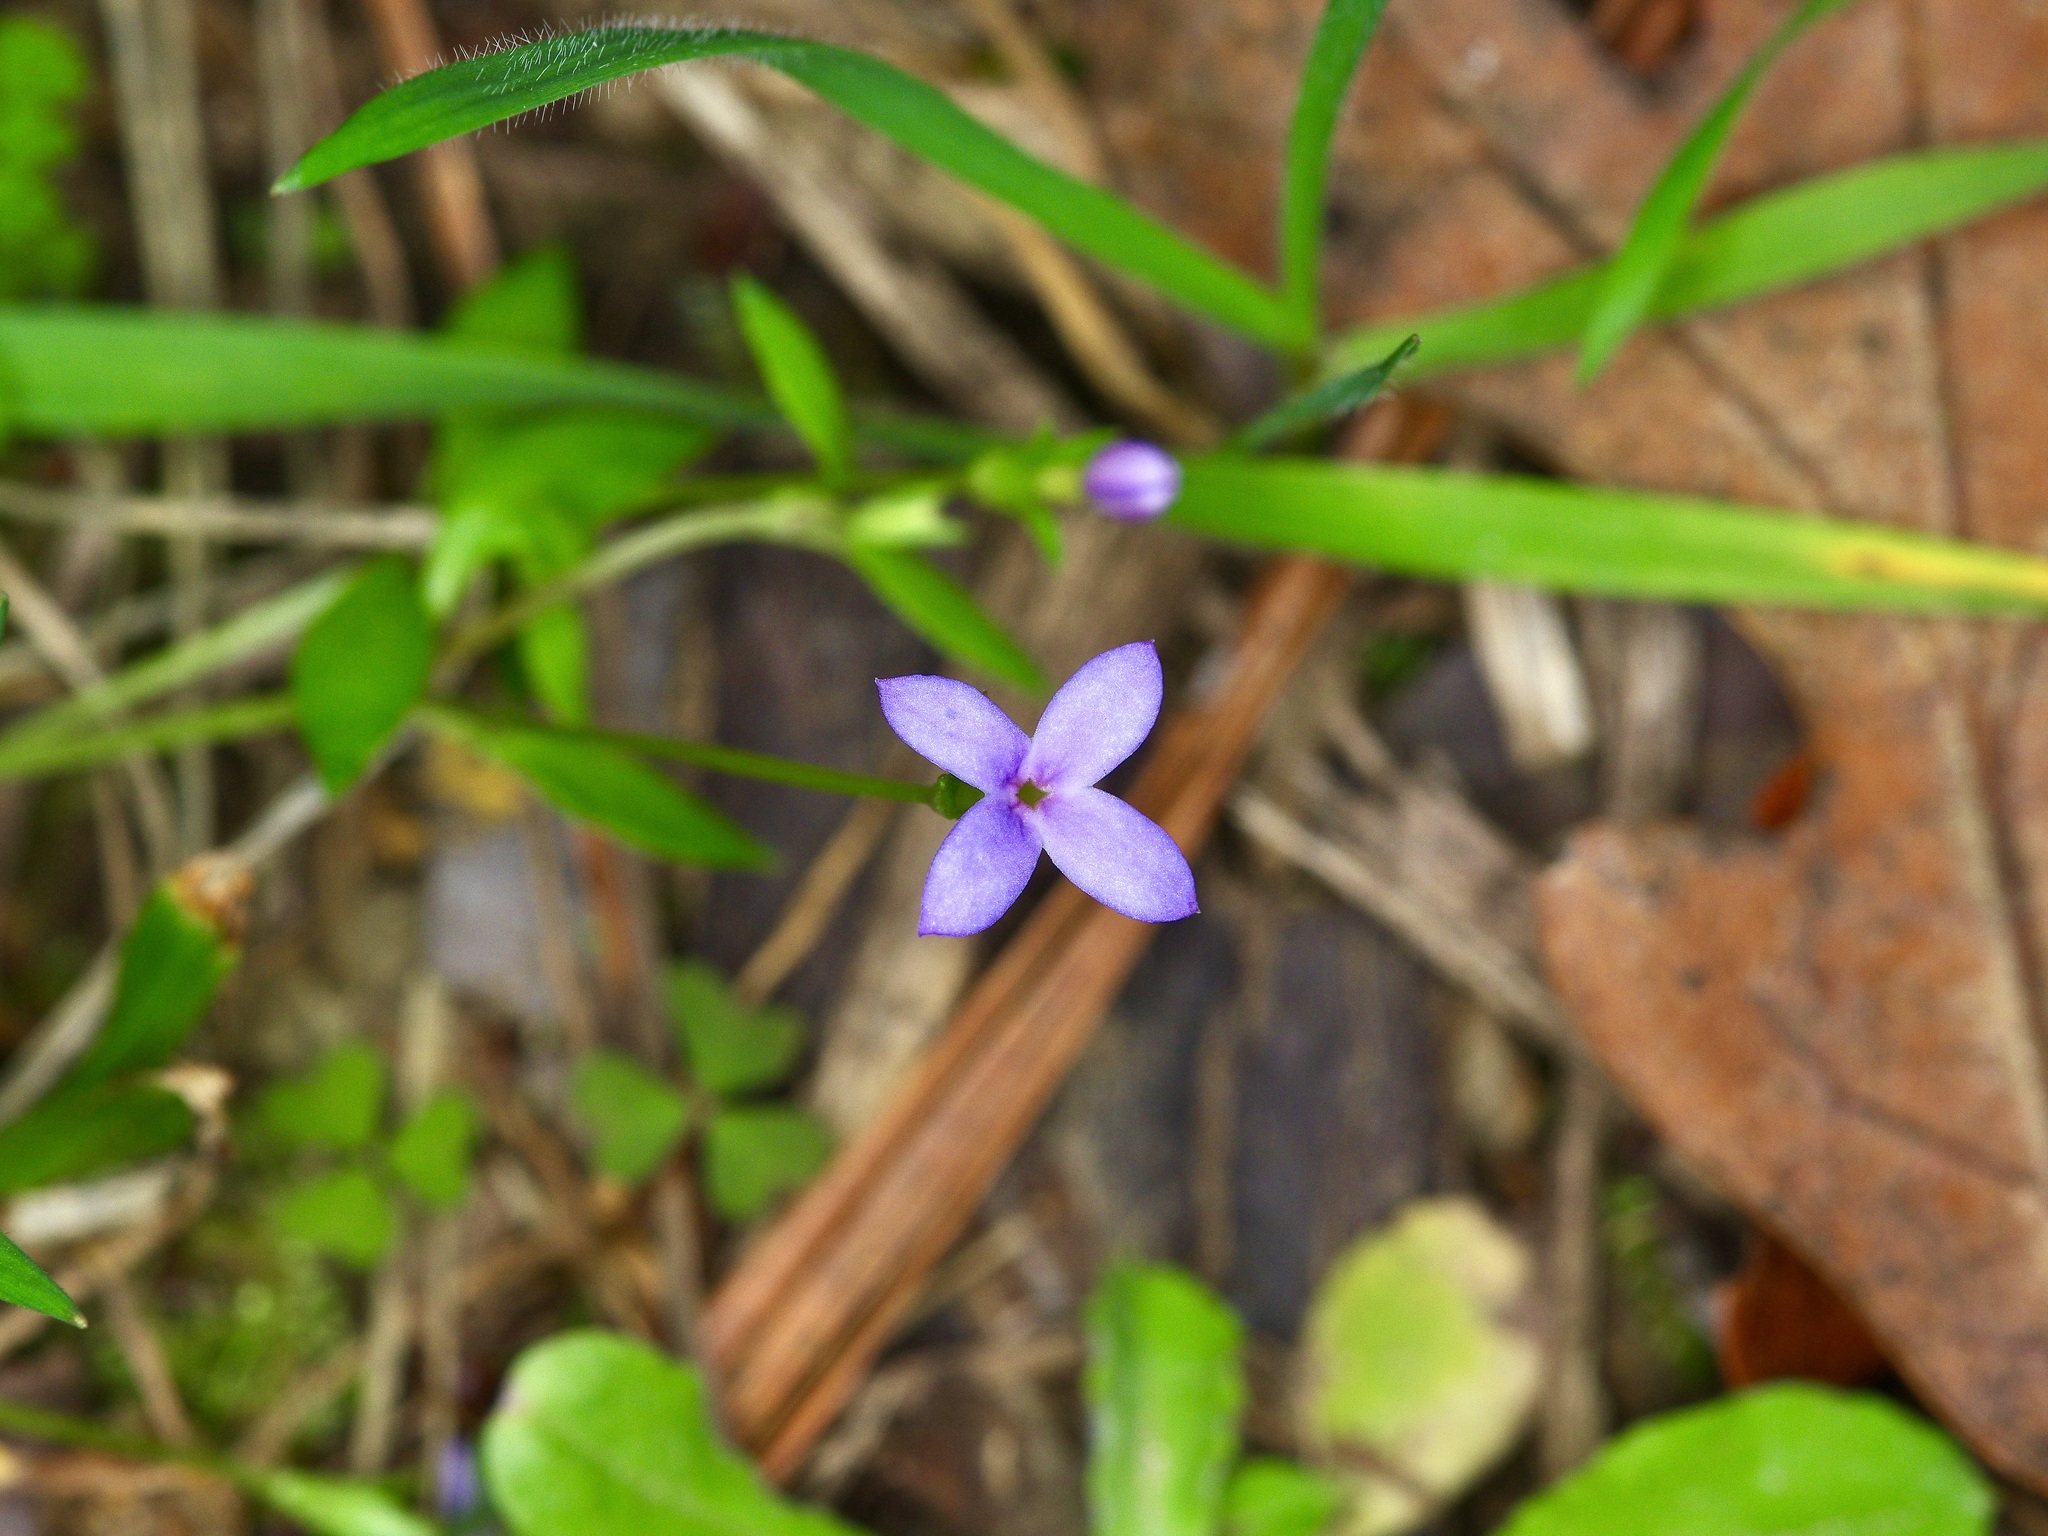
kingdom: Plantae
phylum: Tracheophyta
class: Magnoliopsida
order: Gentianales
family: Rubiaceae
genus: Houstonia
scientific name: Houstonia pusilla
